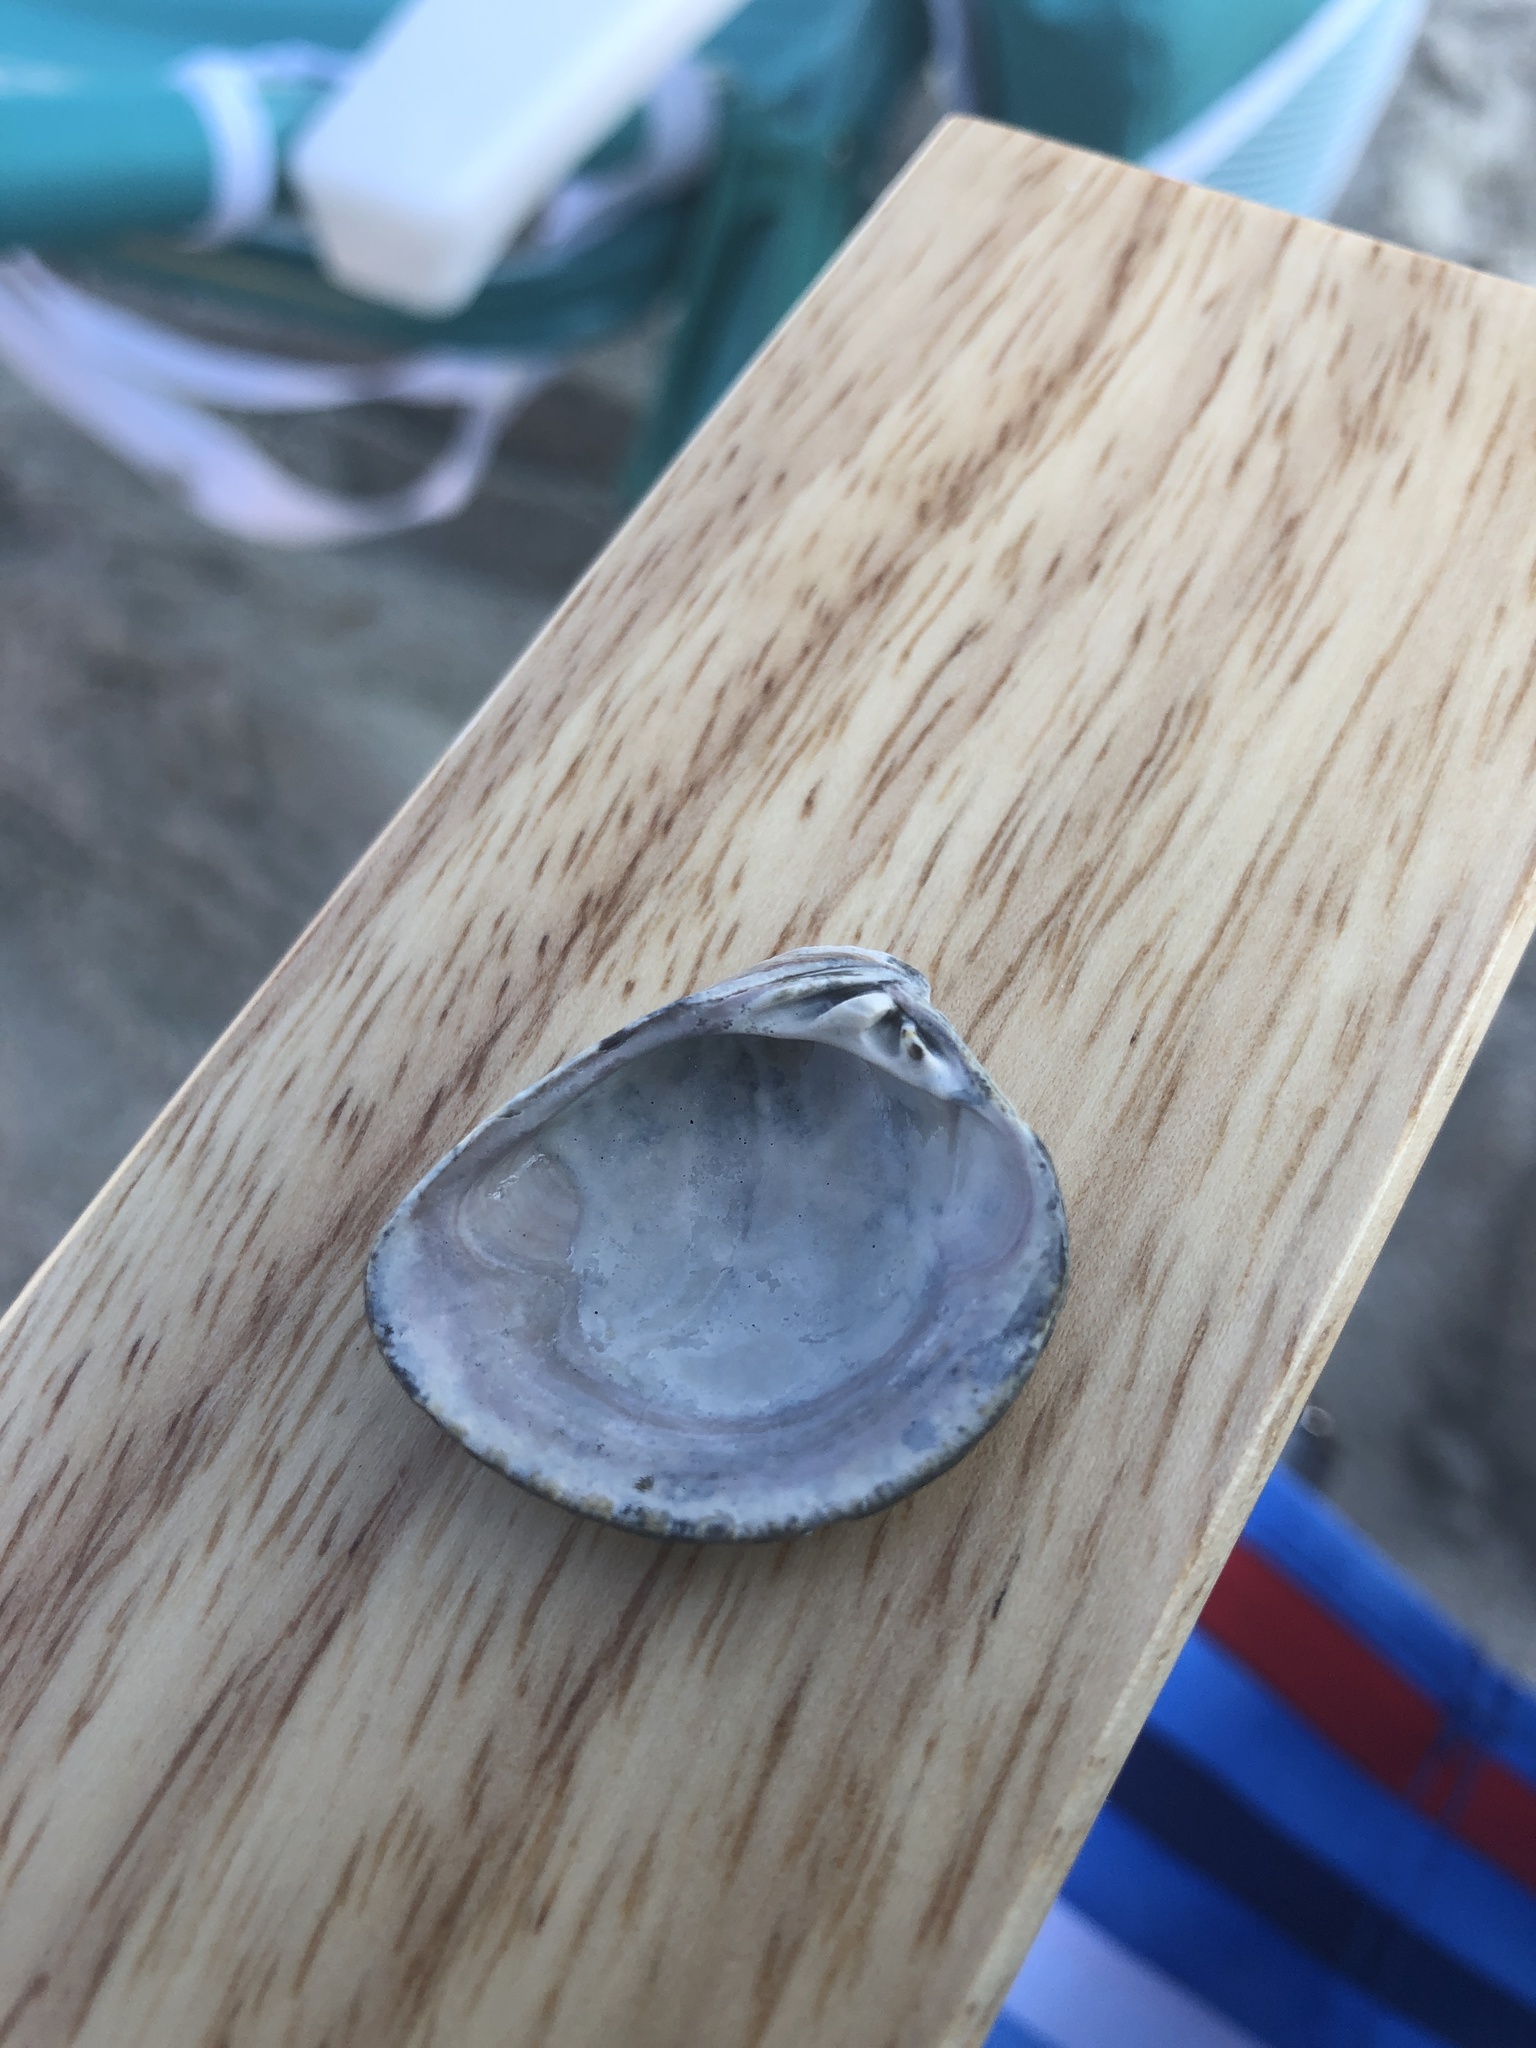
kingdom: Animalia
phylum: Mollusca
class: Bivalvia
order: Venerida
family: Veneridae
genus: Chione
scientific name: Chione elevata
